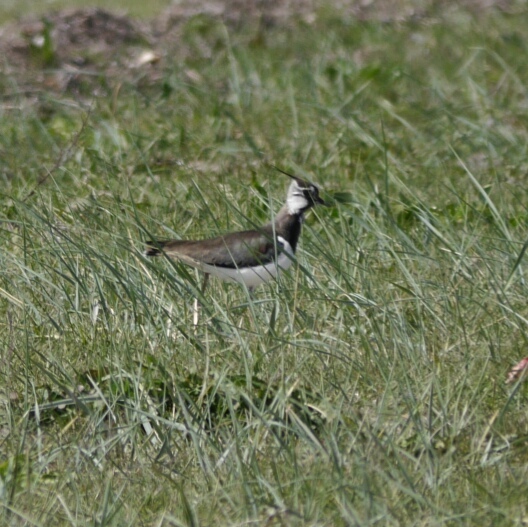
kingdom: Animalia
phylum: Chordata
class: Aves
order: Charadriiformes
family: Charadriidae
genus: Vanellus
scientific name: Vanellus vanellus
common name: Northern lapwing
